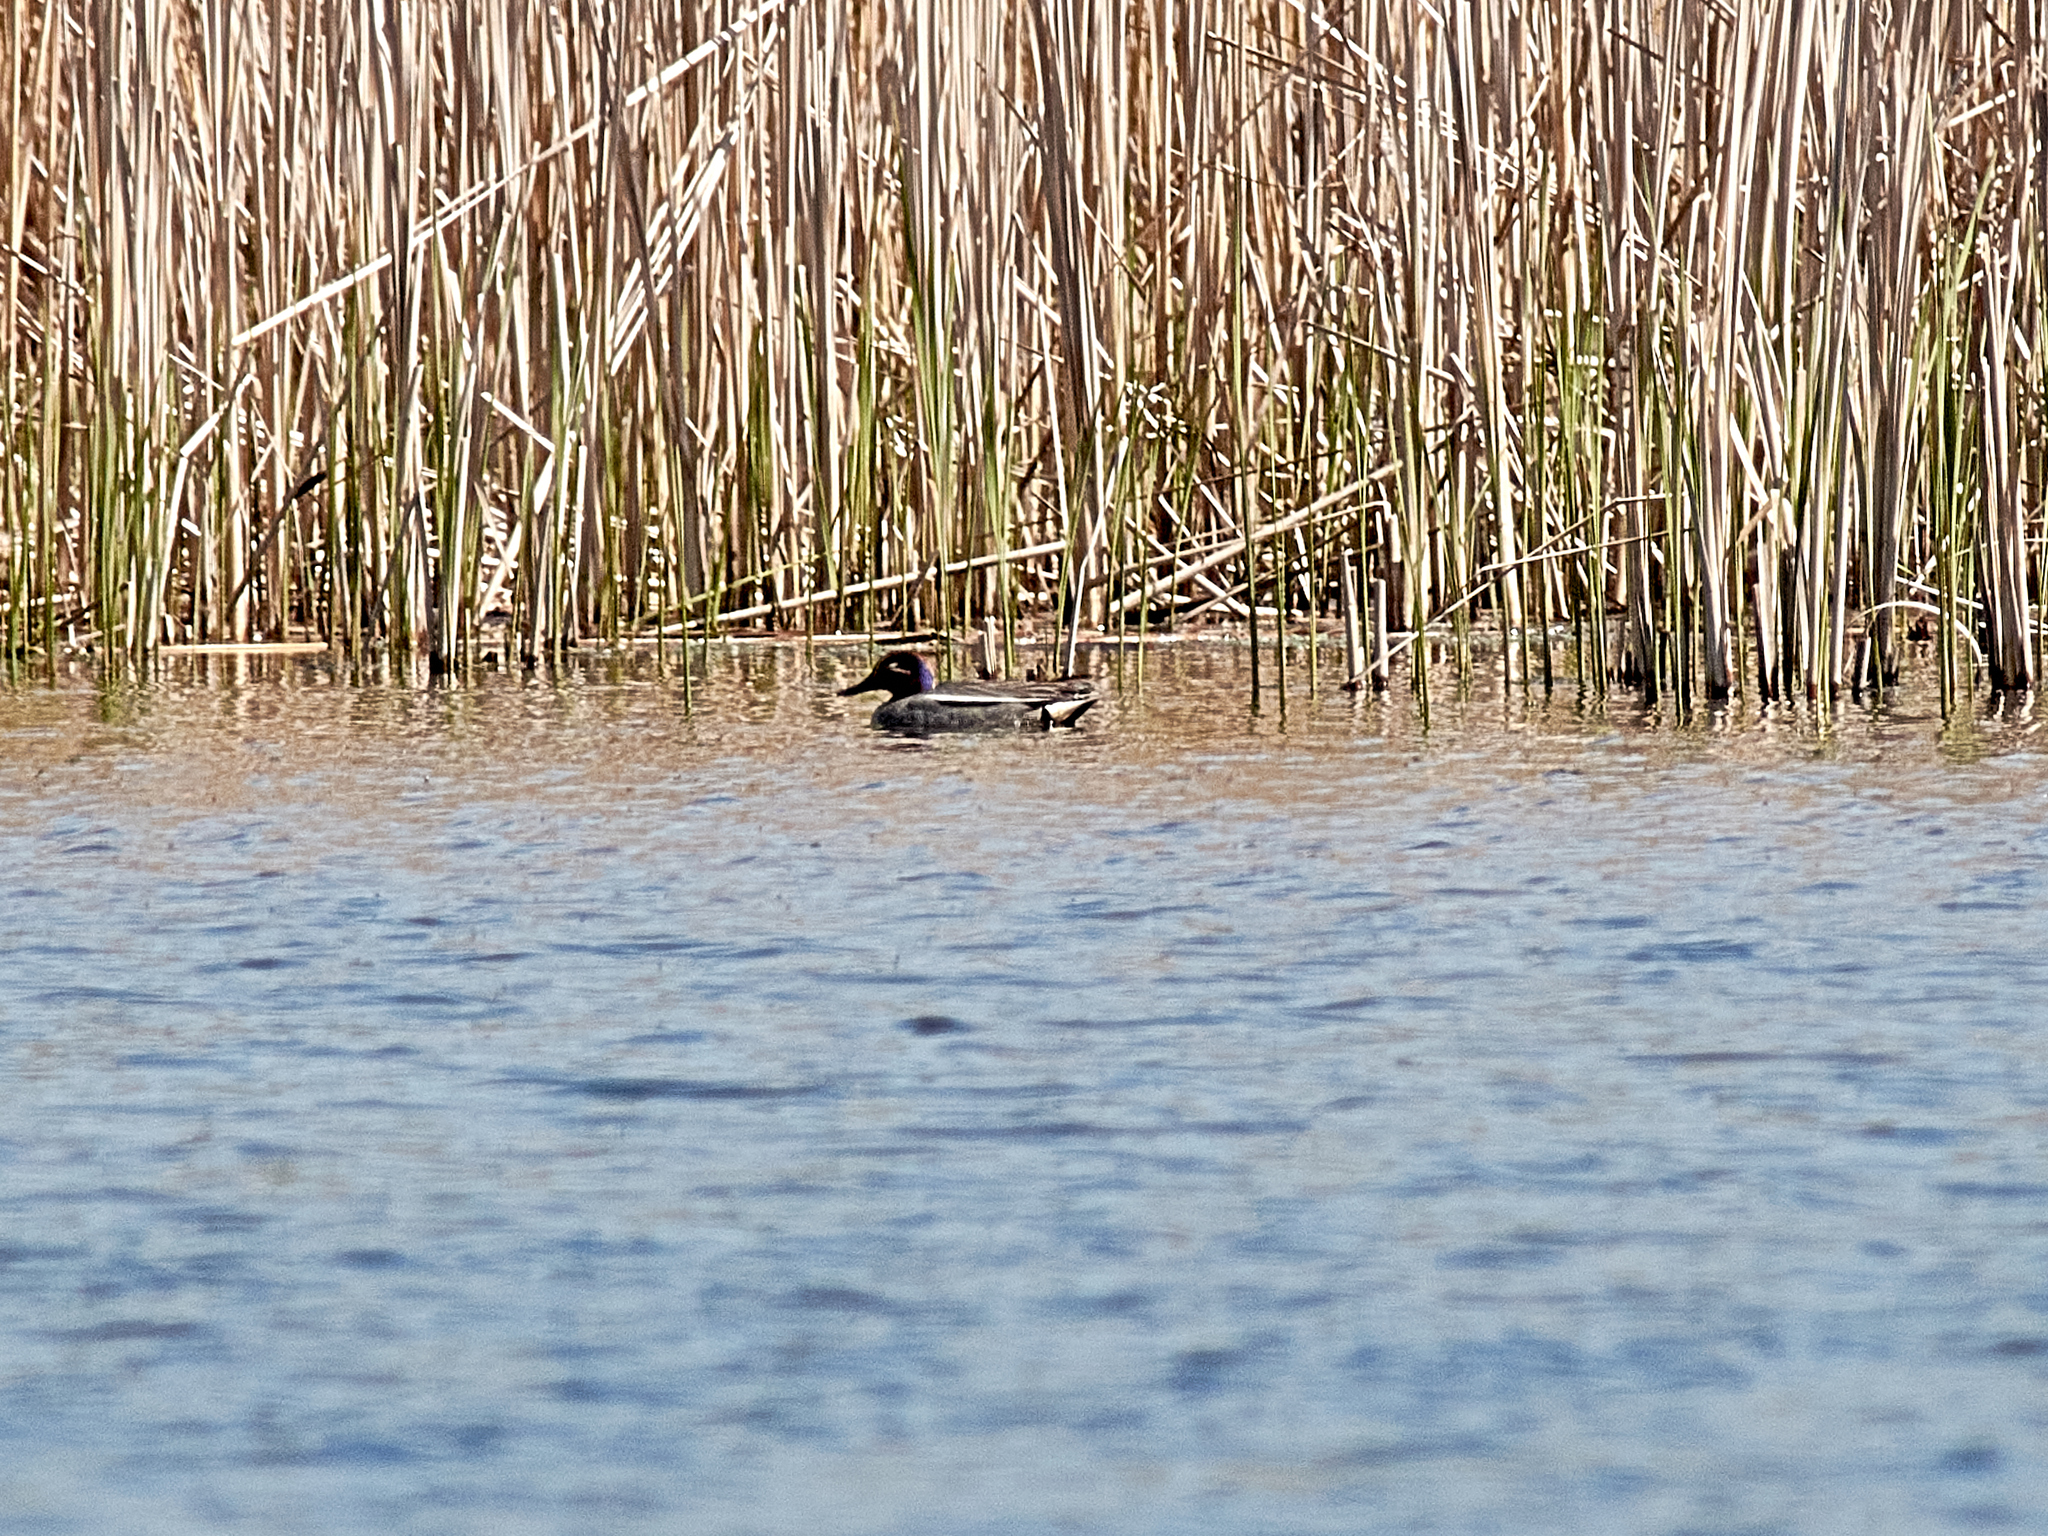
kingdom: Animalia
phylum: Chordata
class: Aves
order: Anseriformes
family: Anatidae
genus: Anas
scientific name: Anas crecca
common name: Eurasian teal
